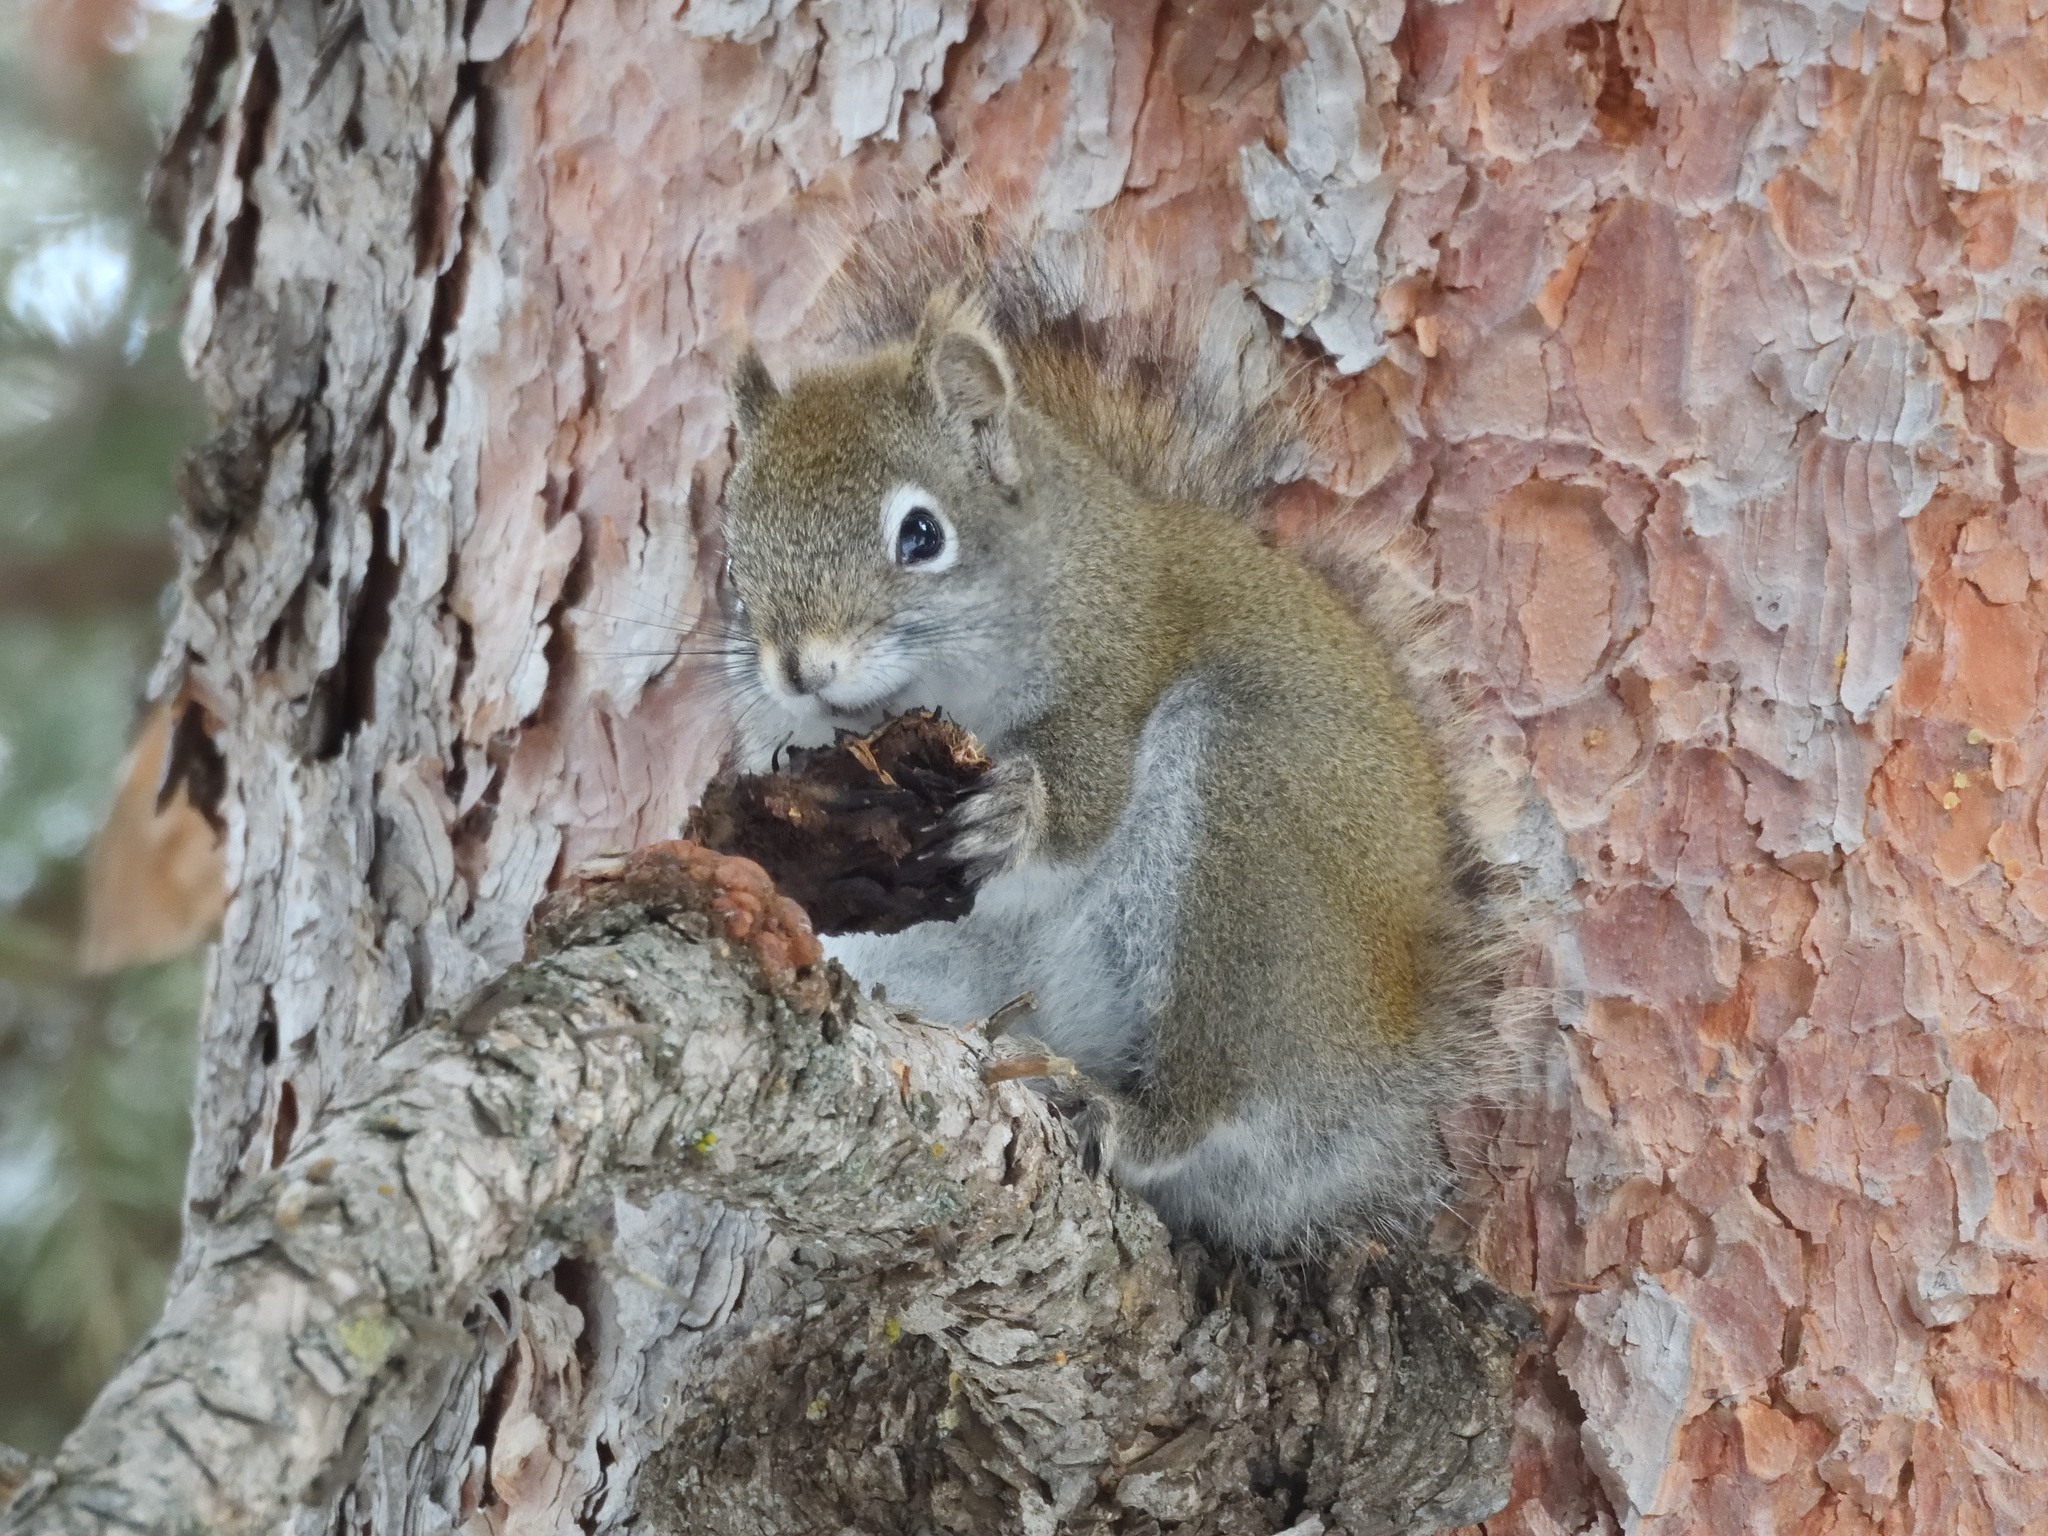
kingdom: Animalia
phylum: Chordata
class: Mammalia
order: Rodentia
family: Sciuridae
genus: Tamiasciurus
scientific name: Tamiasciurus hudsonicus
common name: Red squirrel
